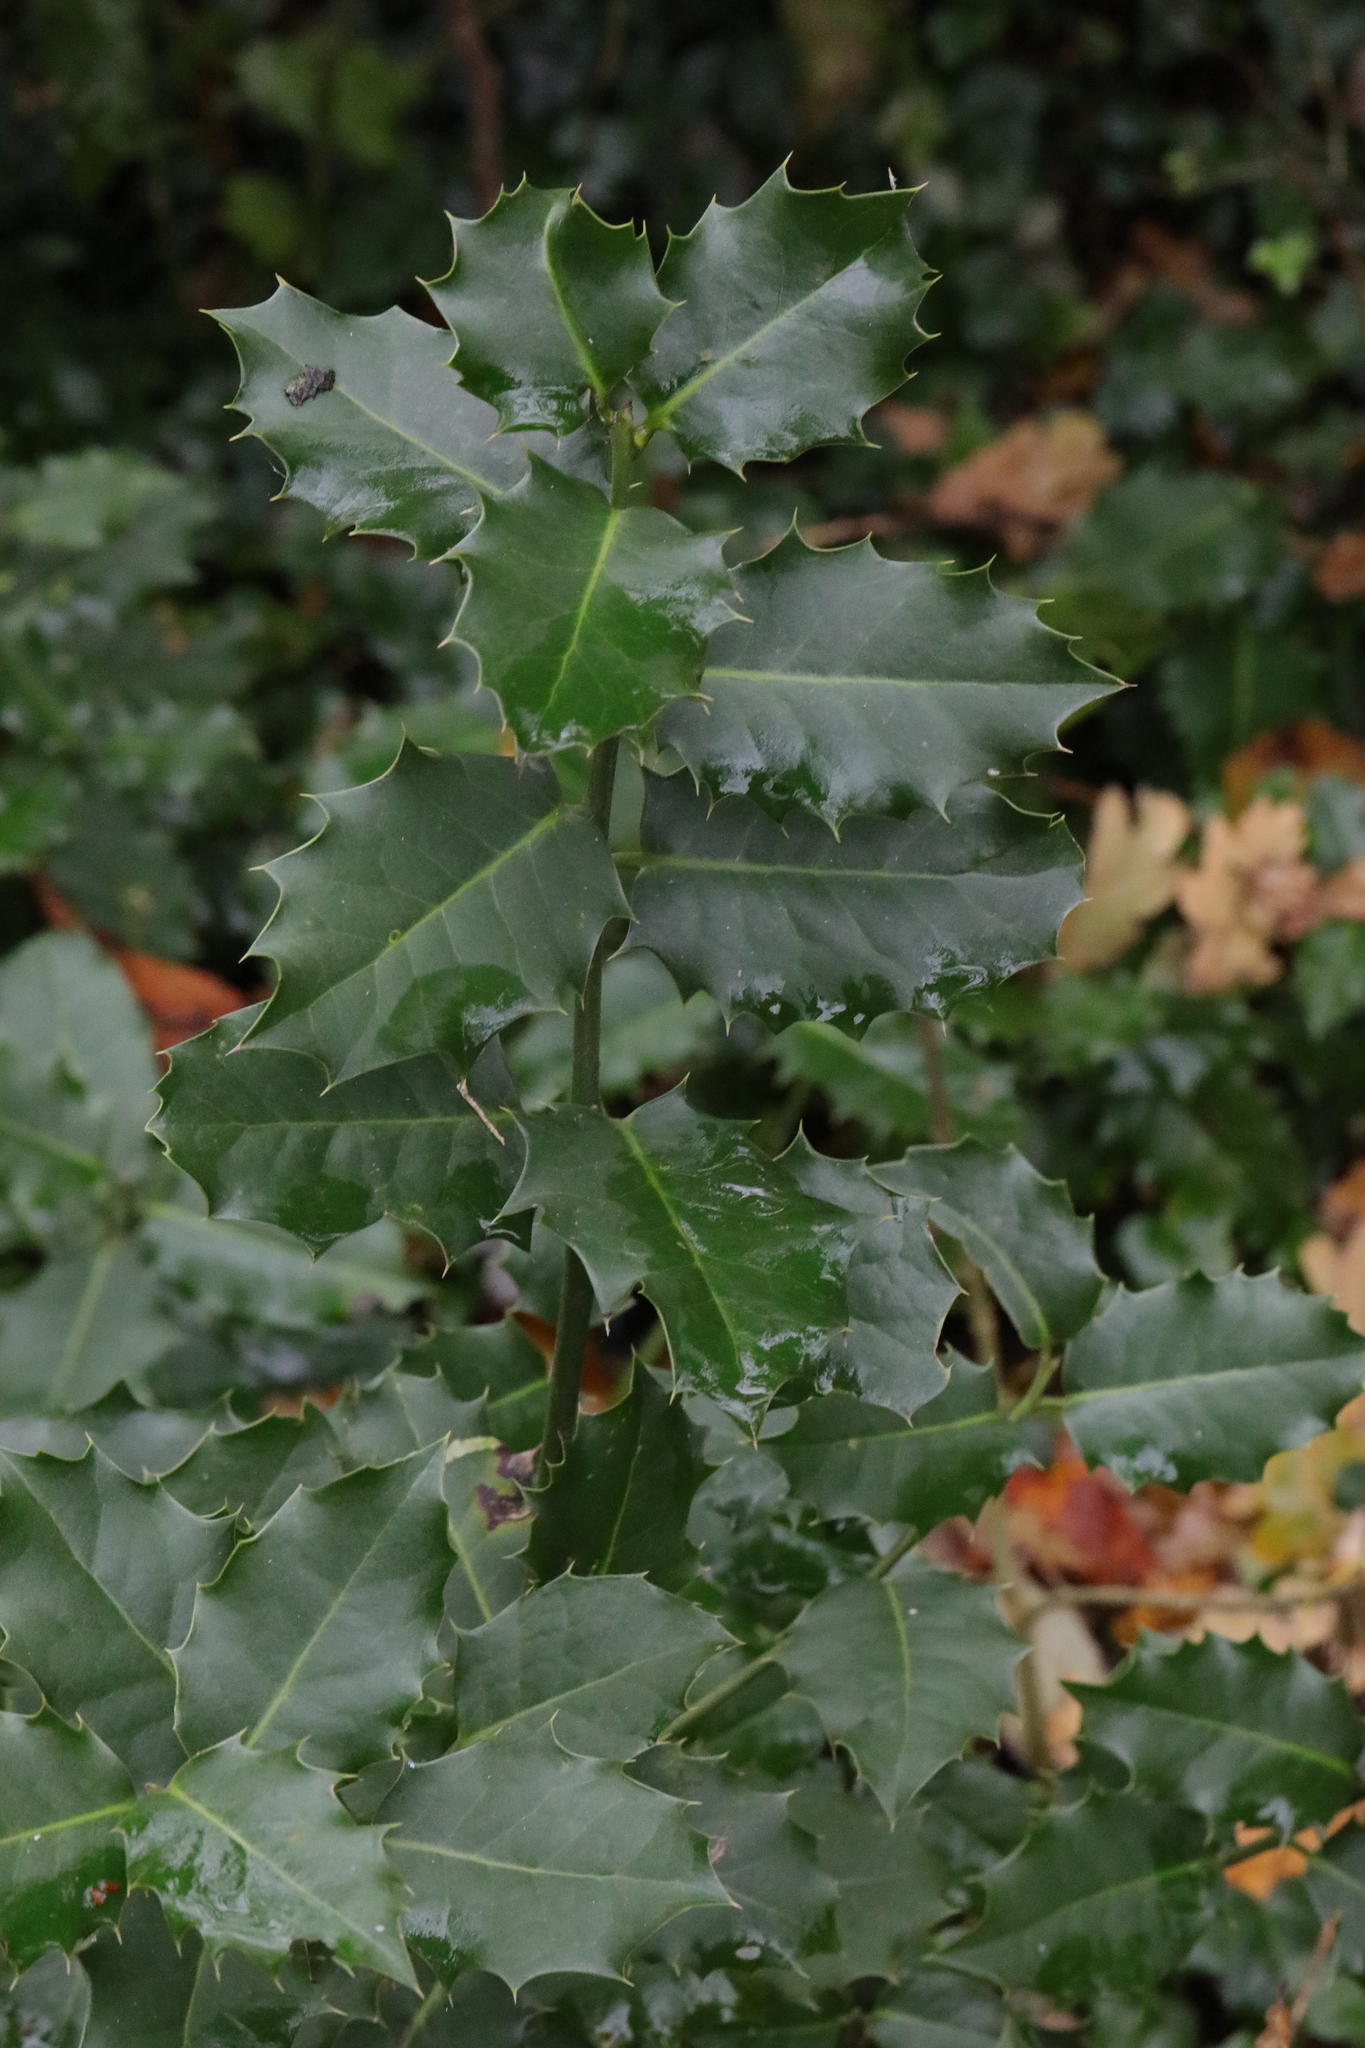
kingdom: Plantae
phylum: Tracheophyta
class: Magnoliopsida
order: Aquifoliales
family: Aquifoliaceae
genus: Ilex
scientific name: Ilex aquifolium
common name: English holly
